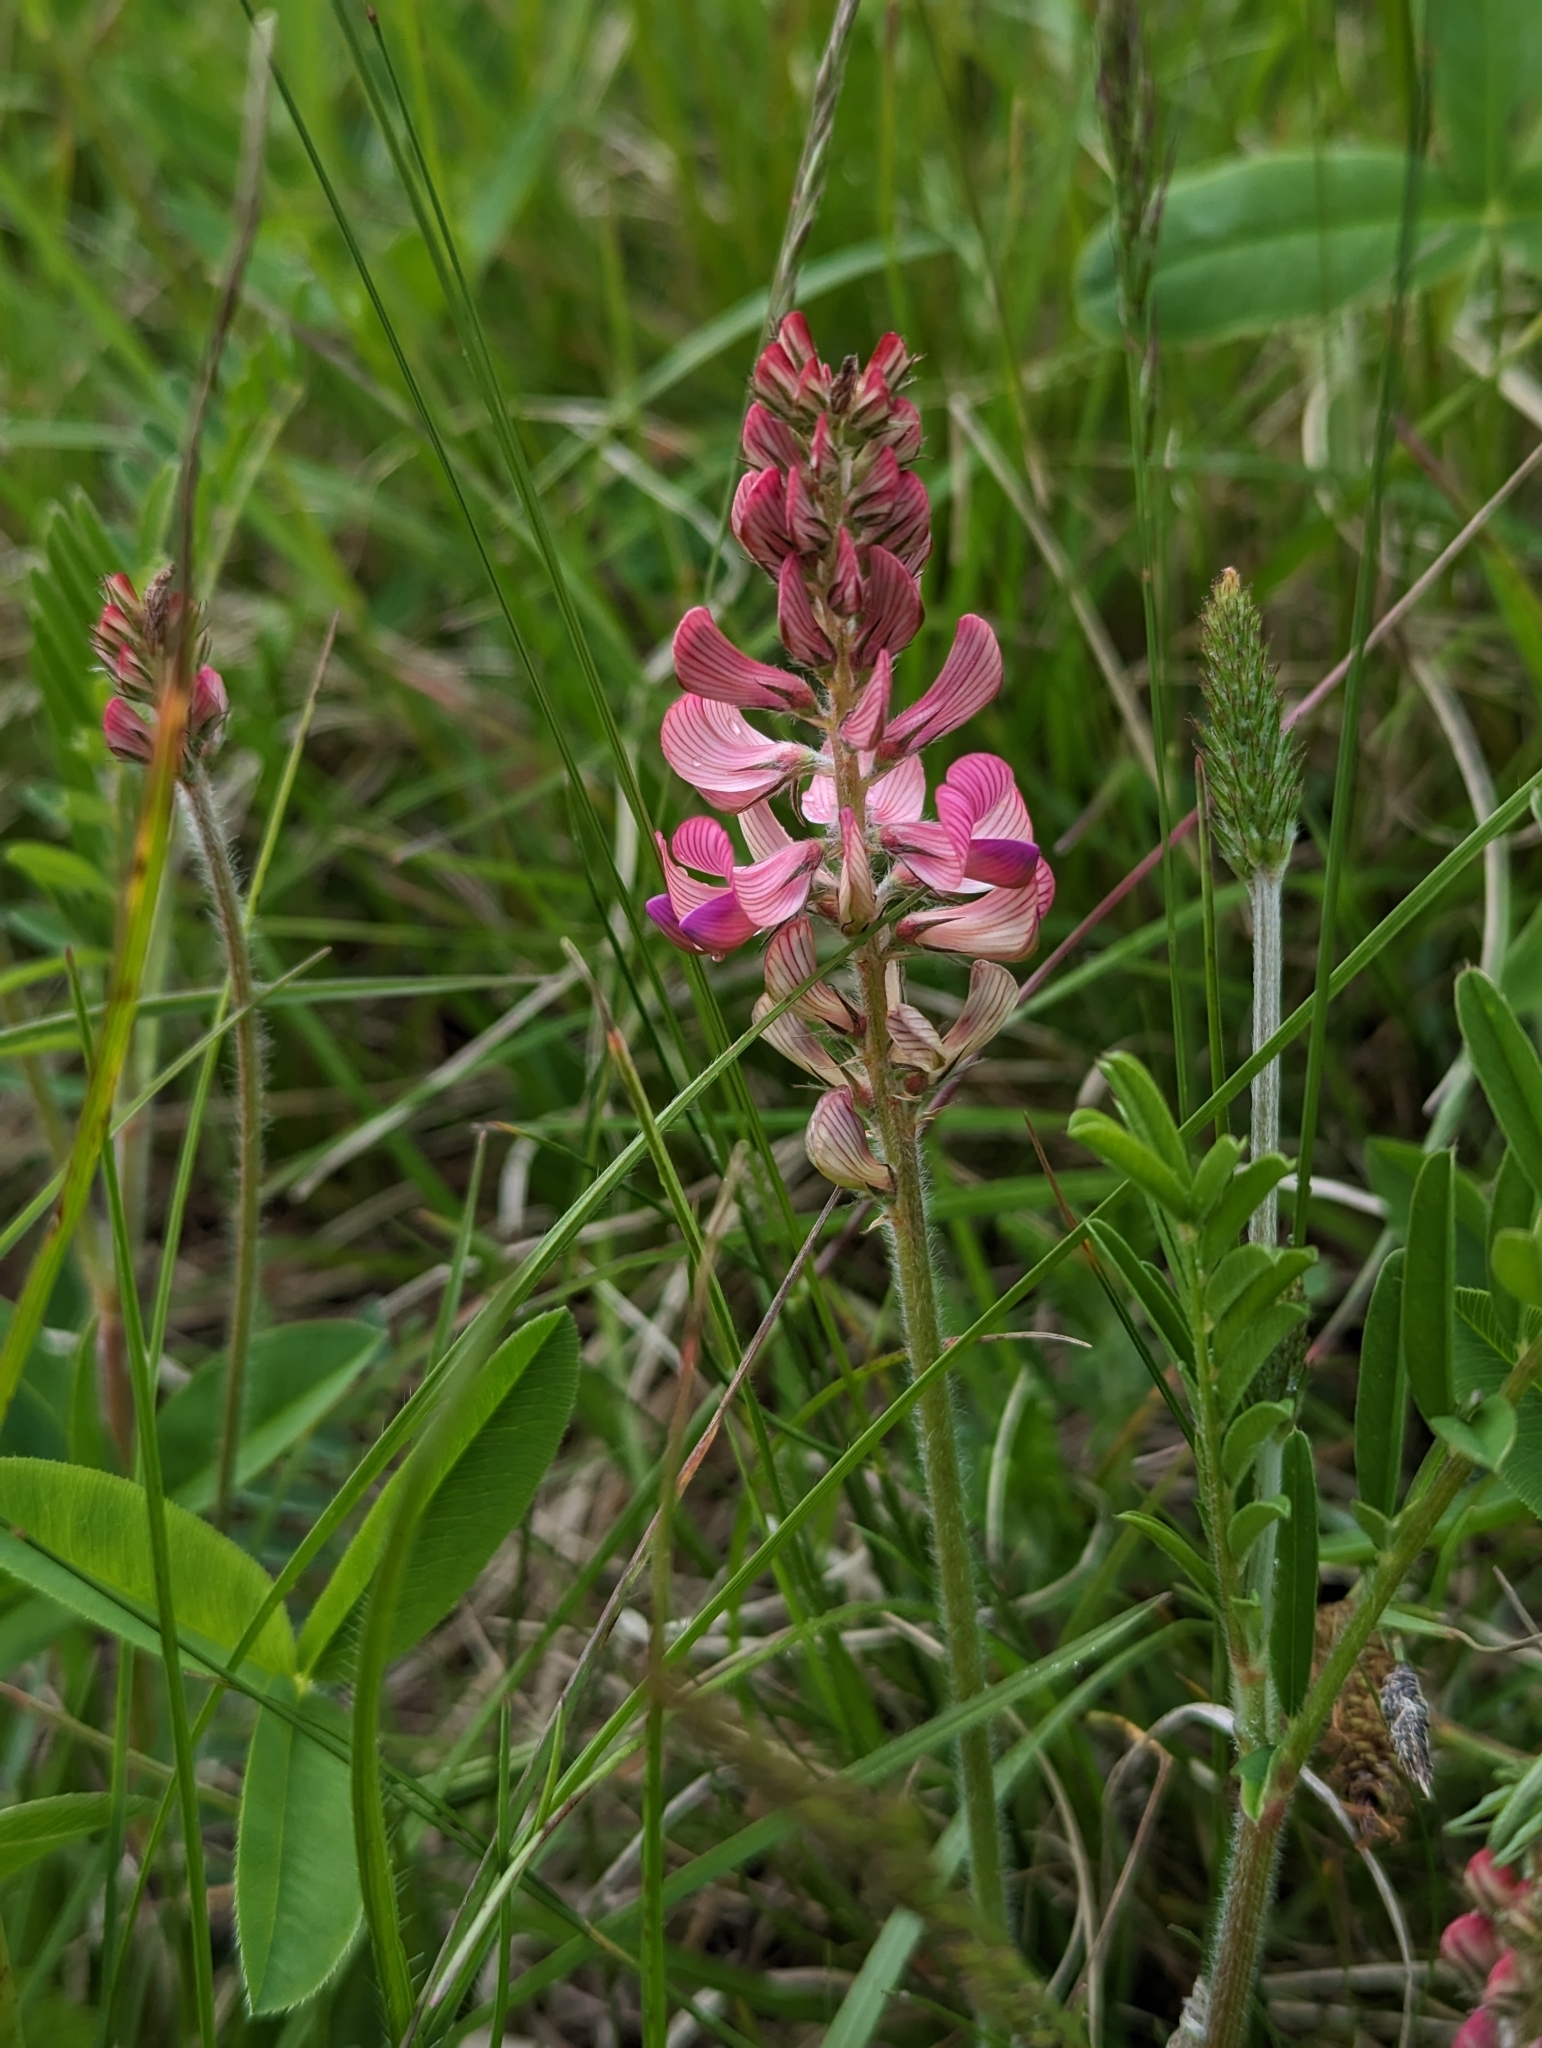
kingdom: Plantae
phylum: Tracheophyta
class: Magnoliopsida
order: Fabales
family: Fabaceae
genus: Onobrychis
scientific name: Onobrychis viciifolia
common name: Sainfoin
